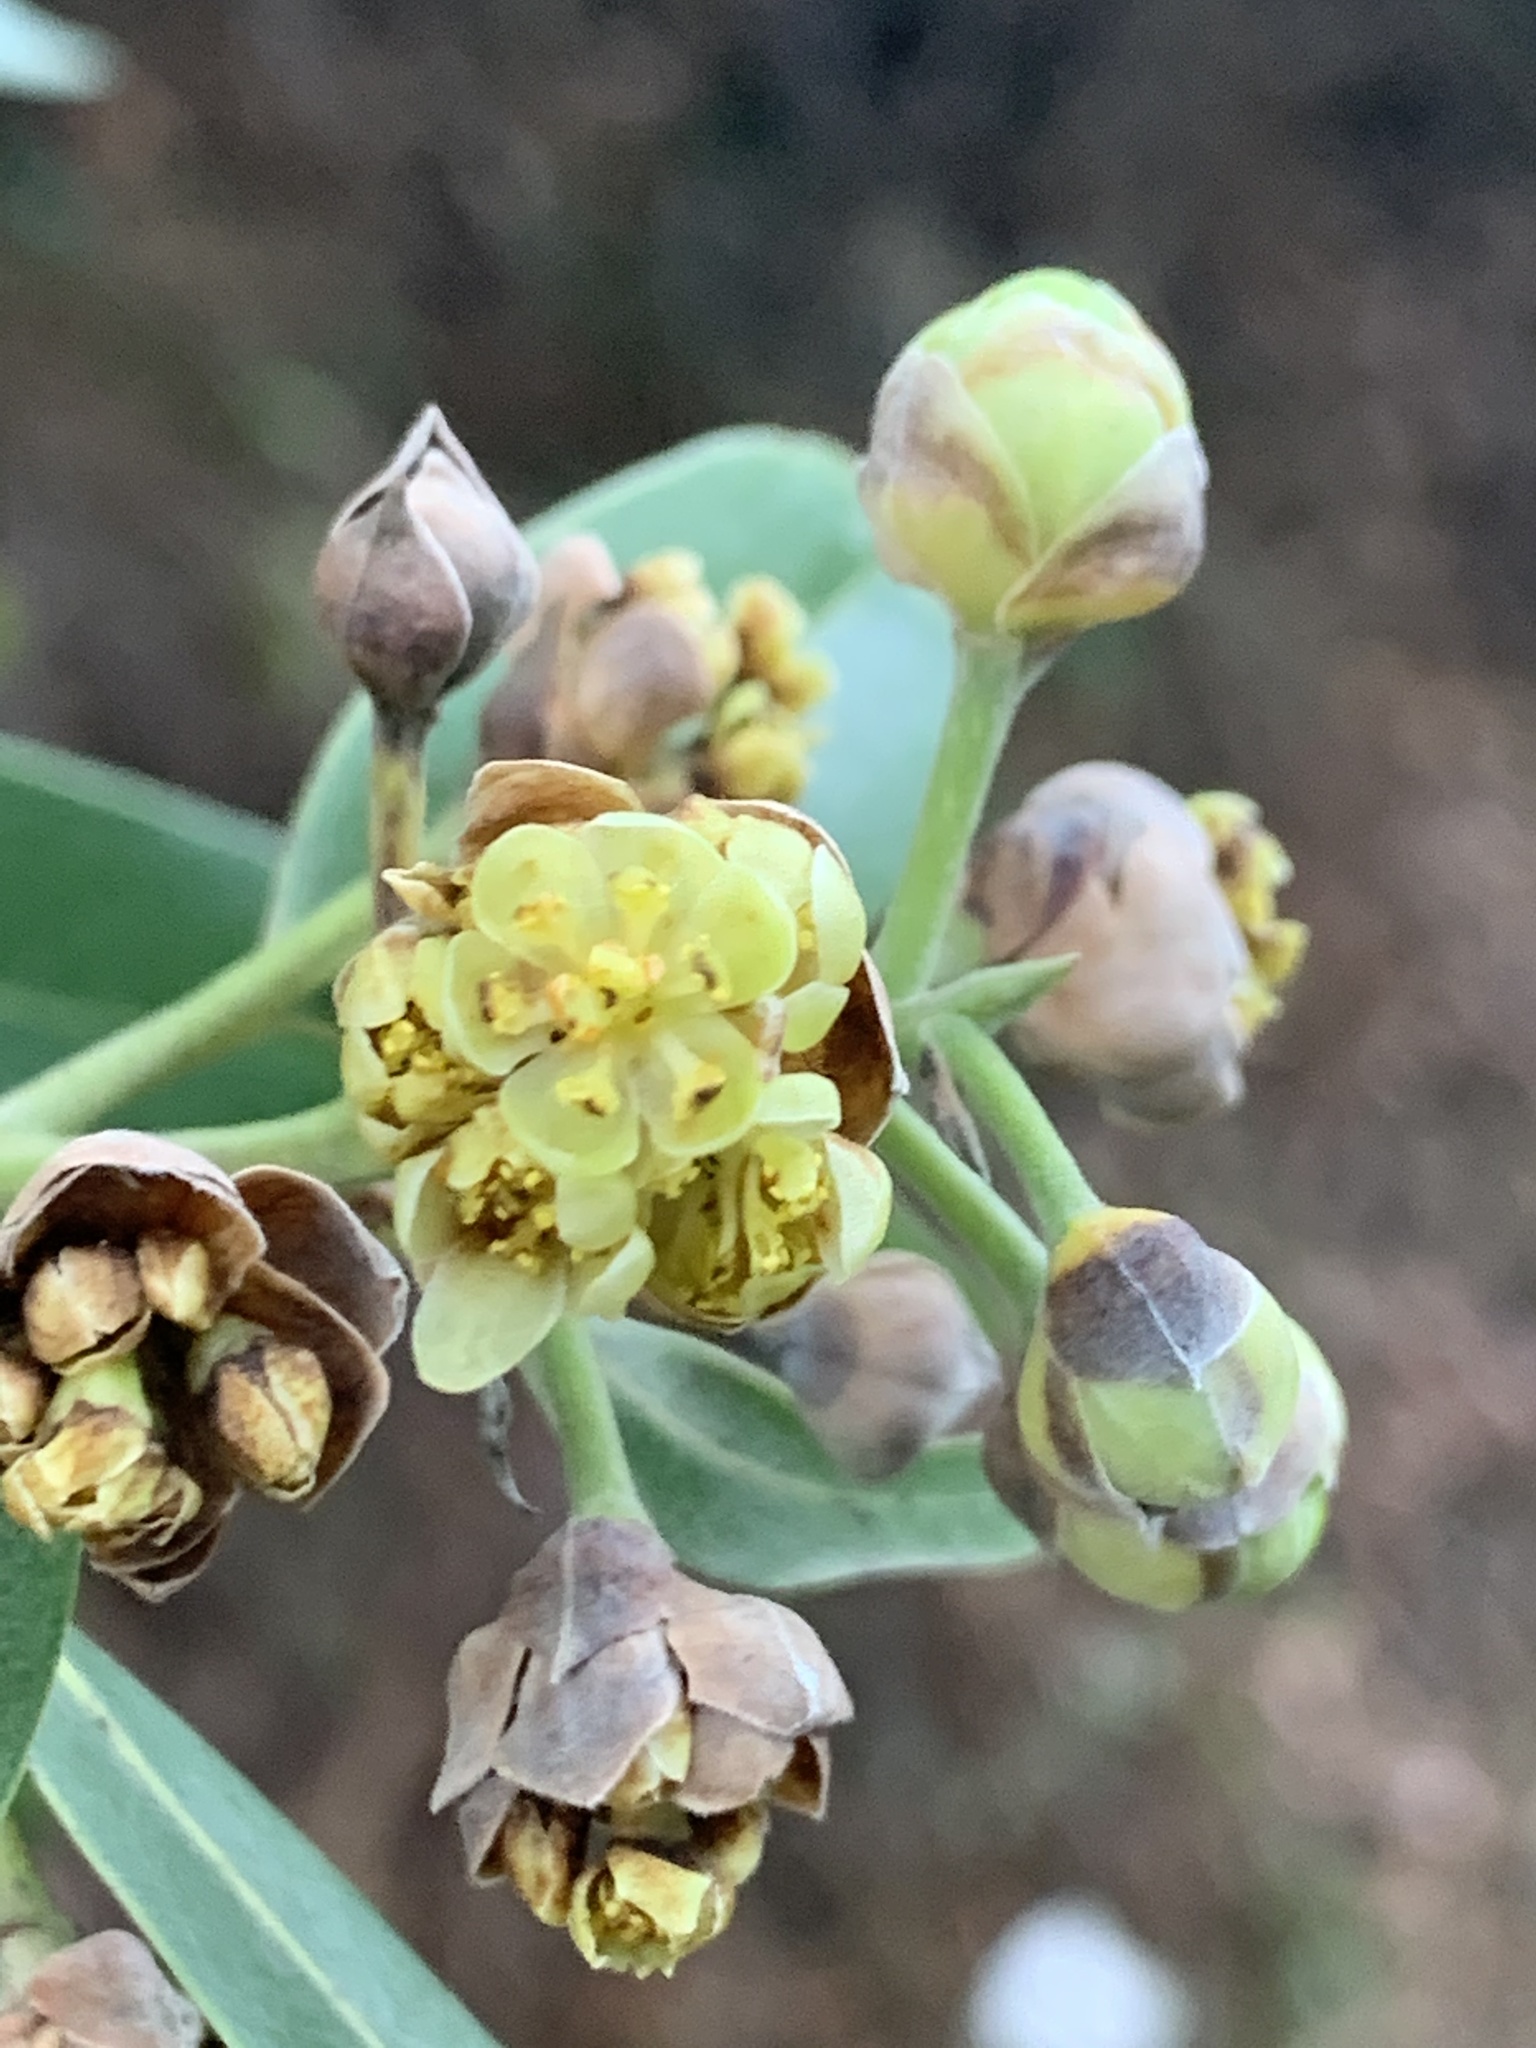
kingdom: Plantae
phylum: Tracheophyta
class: Magnoliopsida
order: Laurales
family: Lauraceae
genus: Umbellularia
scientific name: Umbellularia californica
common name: California bay
